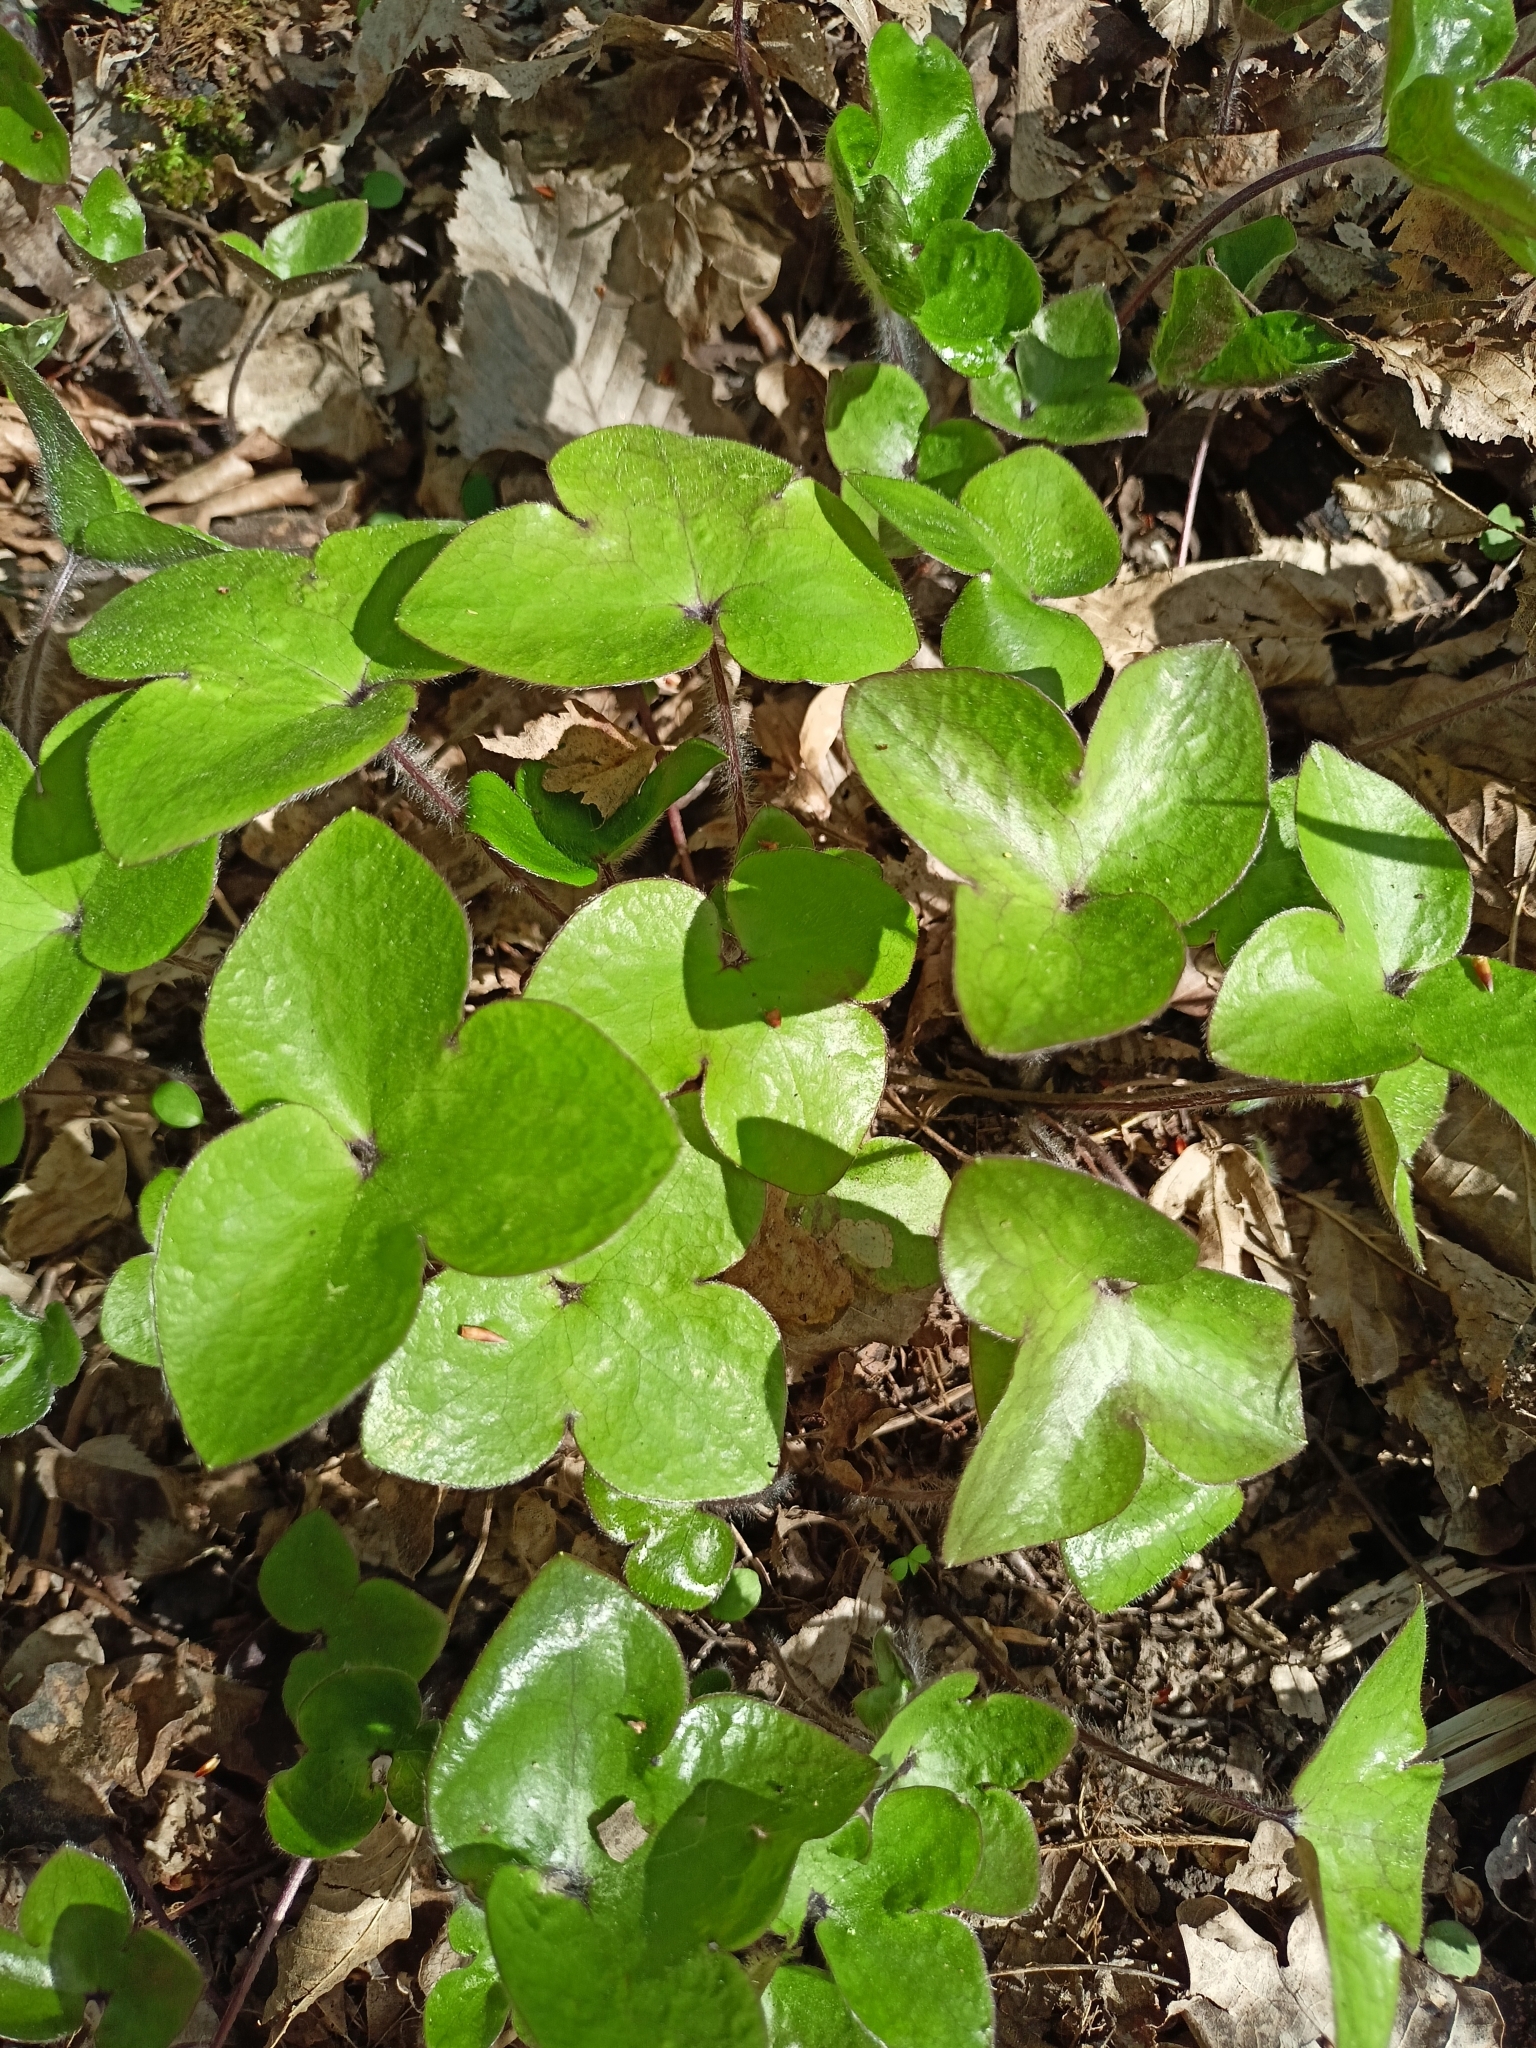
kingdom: Plantae
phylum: Tracheophyta
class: Magnoliopsida
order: Ranunculales
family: Ranunculaceae
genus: Hepatica
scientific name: Hepatica nobilis
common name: Liverleaf
